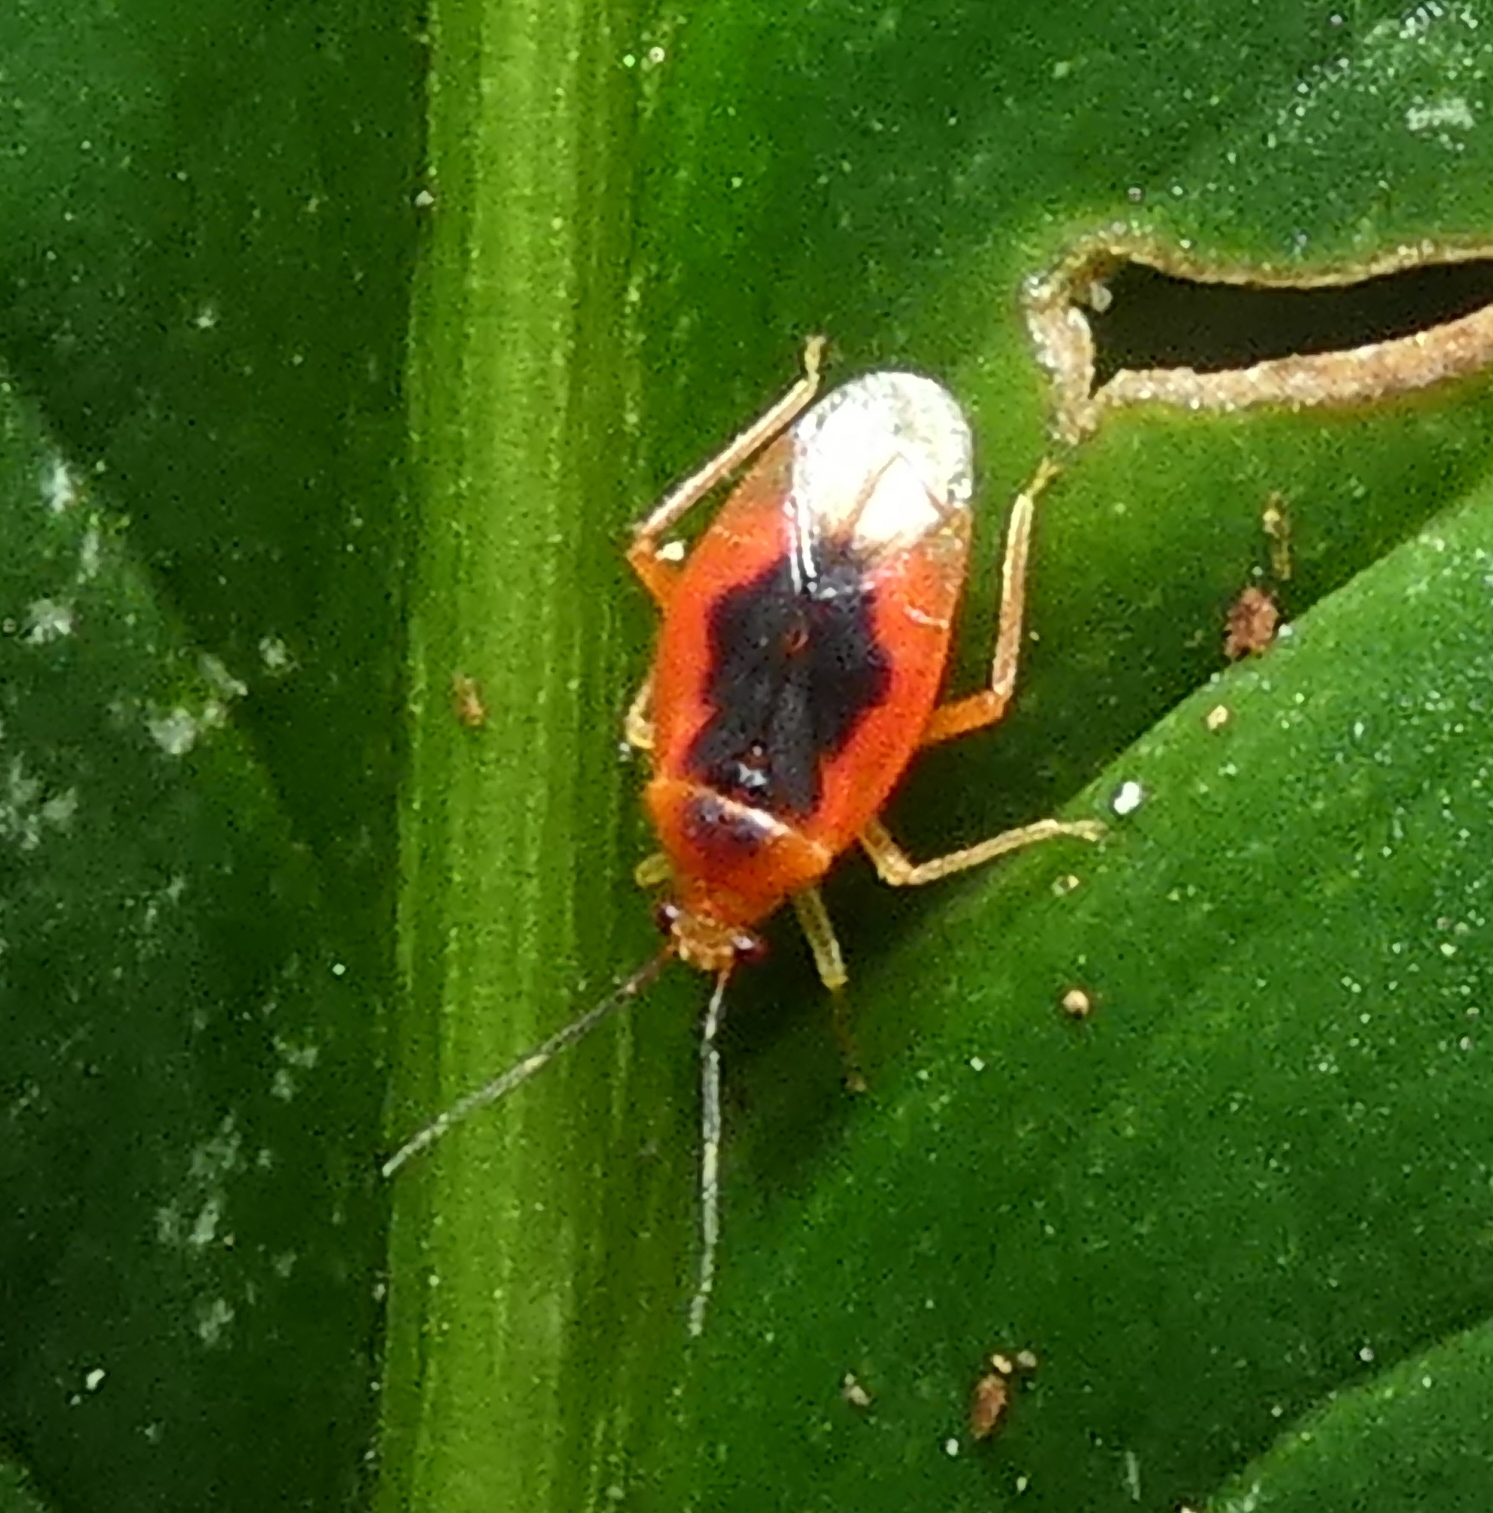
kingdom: Animalia
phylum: Arthropoda
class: Insecta
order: Hemiptera
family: Miridae
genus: Parafurius
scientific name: Parafurius discifer
